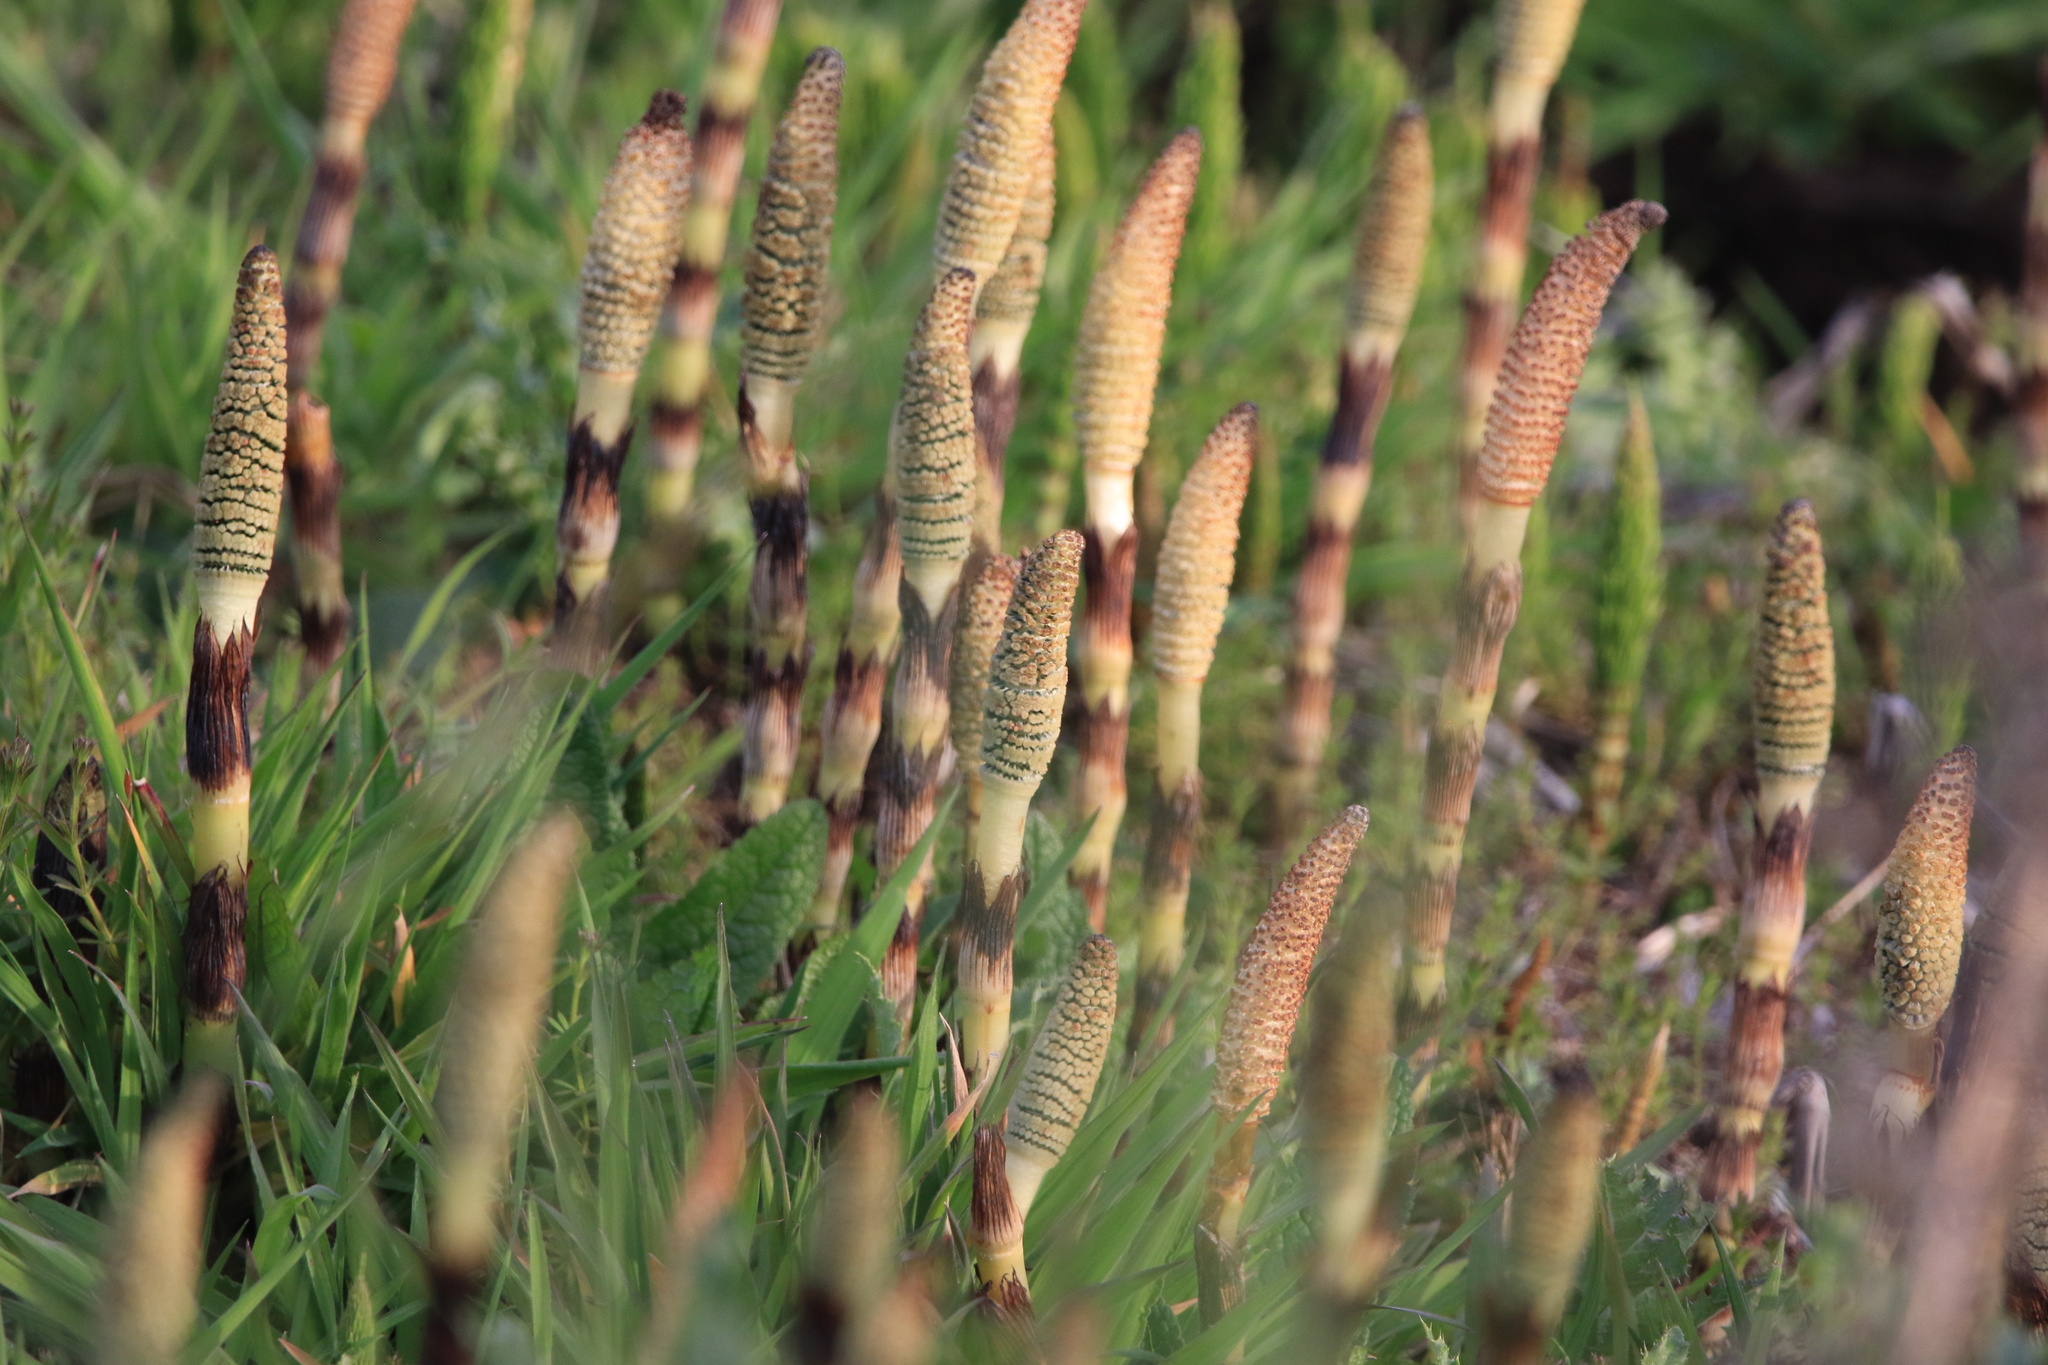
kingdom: Plantae
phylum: Tracheophyta
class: Polypodiopsida
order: Equisetales
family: Equisetaceae
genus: Equisetum
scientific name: Equisetum telmateia
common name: Great horsetail
